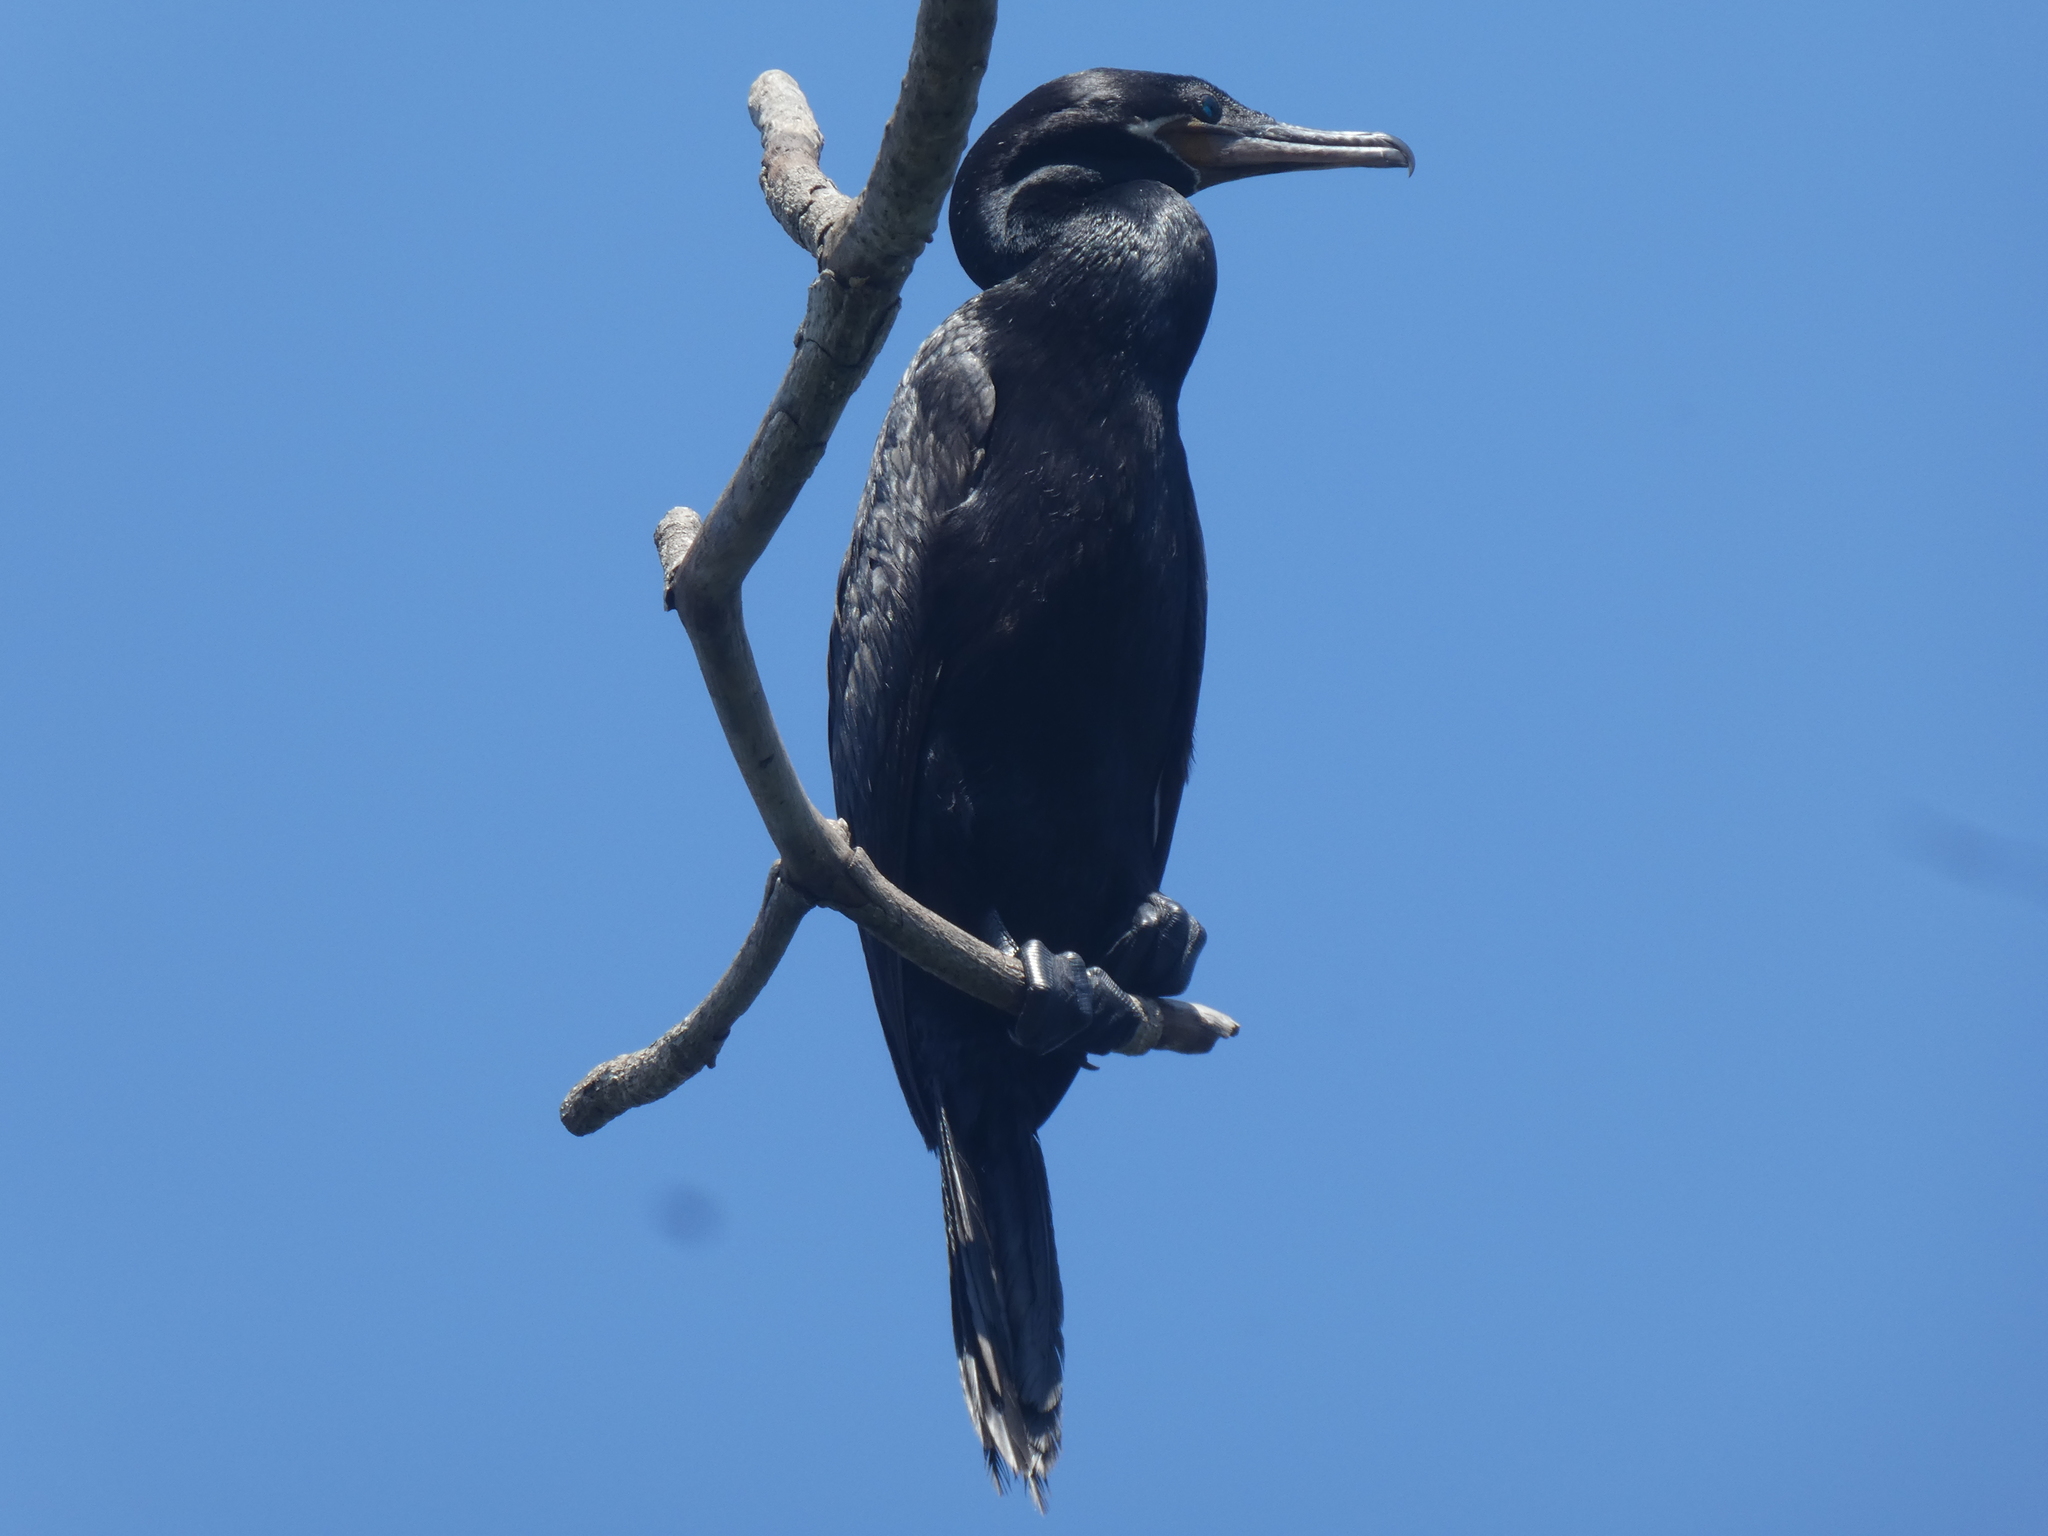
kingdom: Animalia
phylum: Chordata
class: Aves
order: Suliformes
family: Phalacrocoracidae
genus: Phalacrocorax
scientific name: Phalacrocorax brasilianus
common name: Neotropic cormorant
